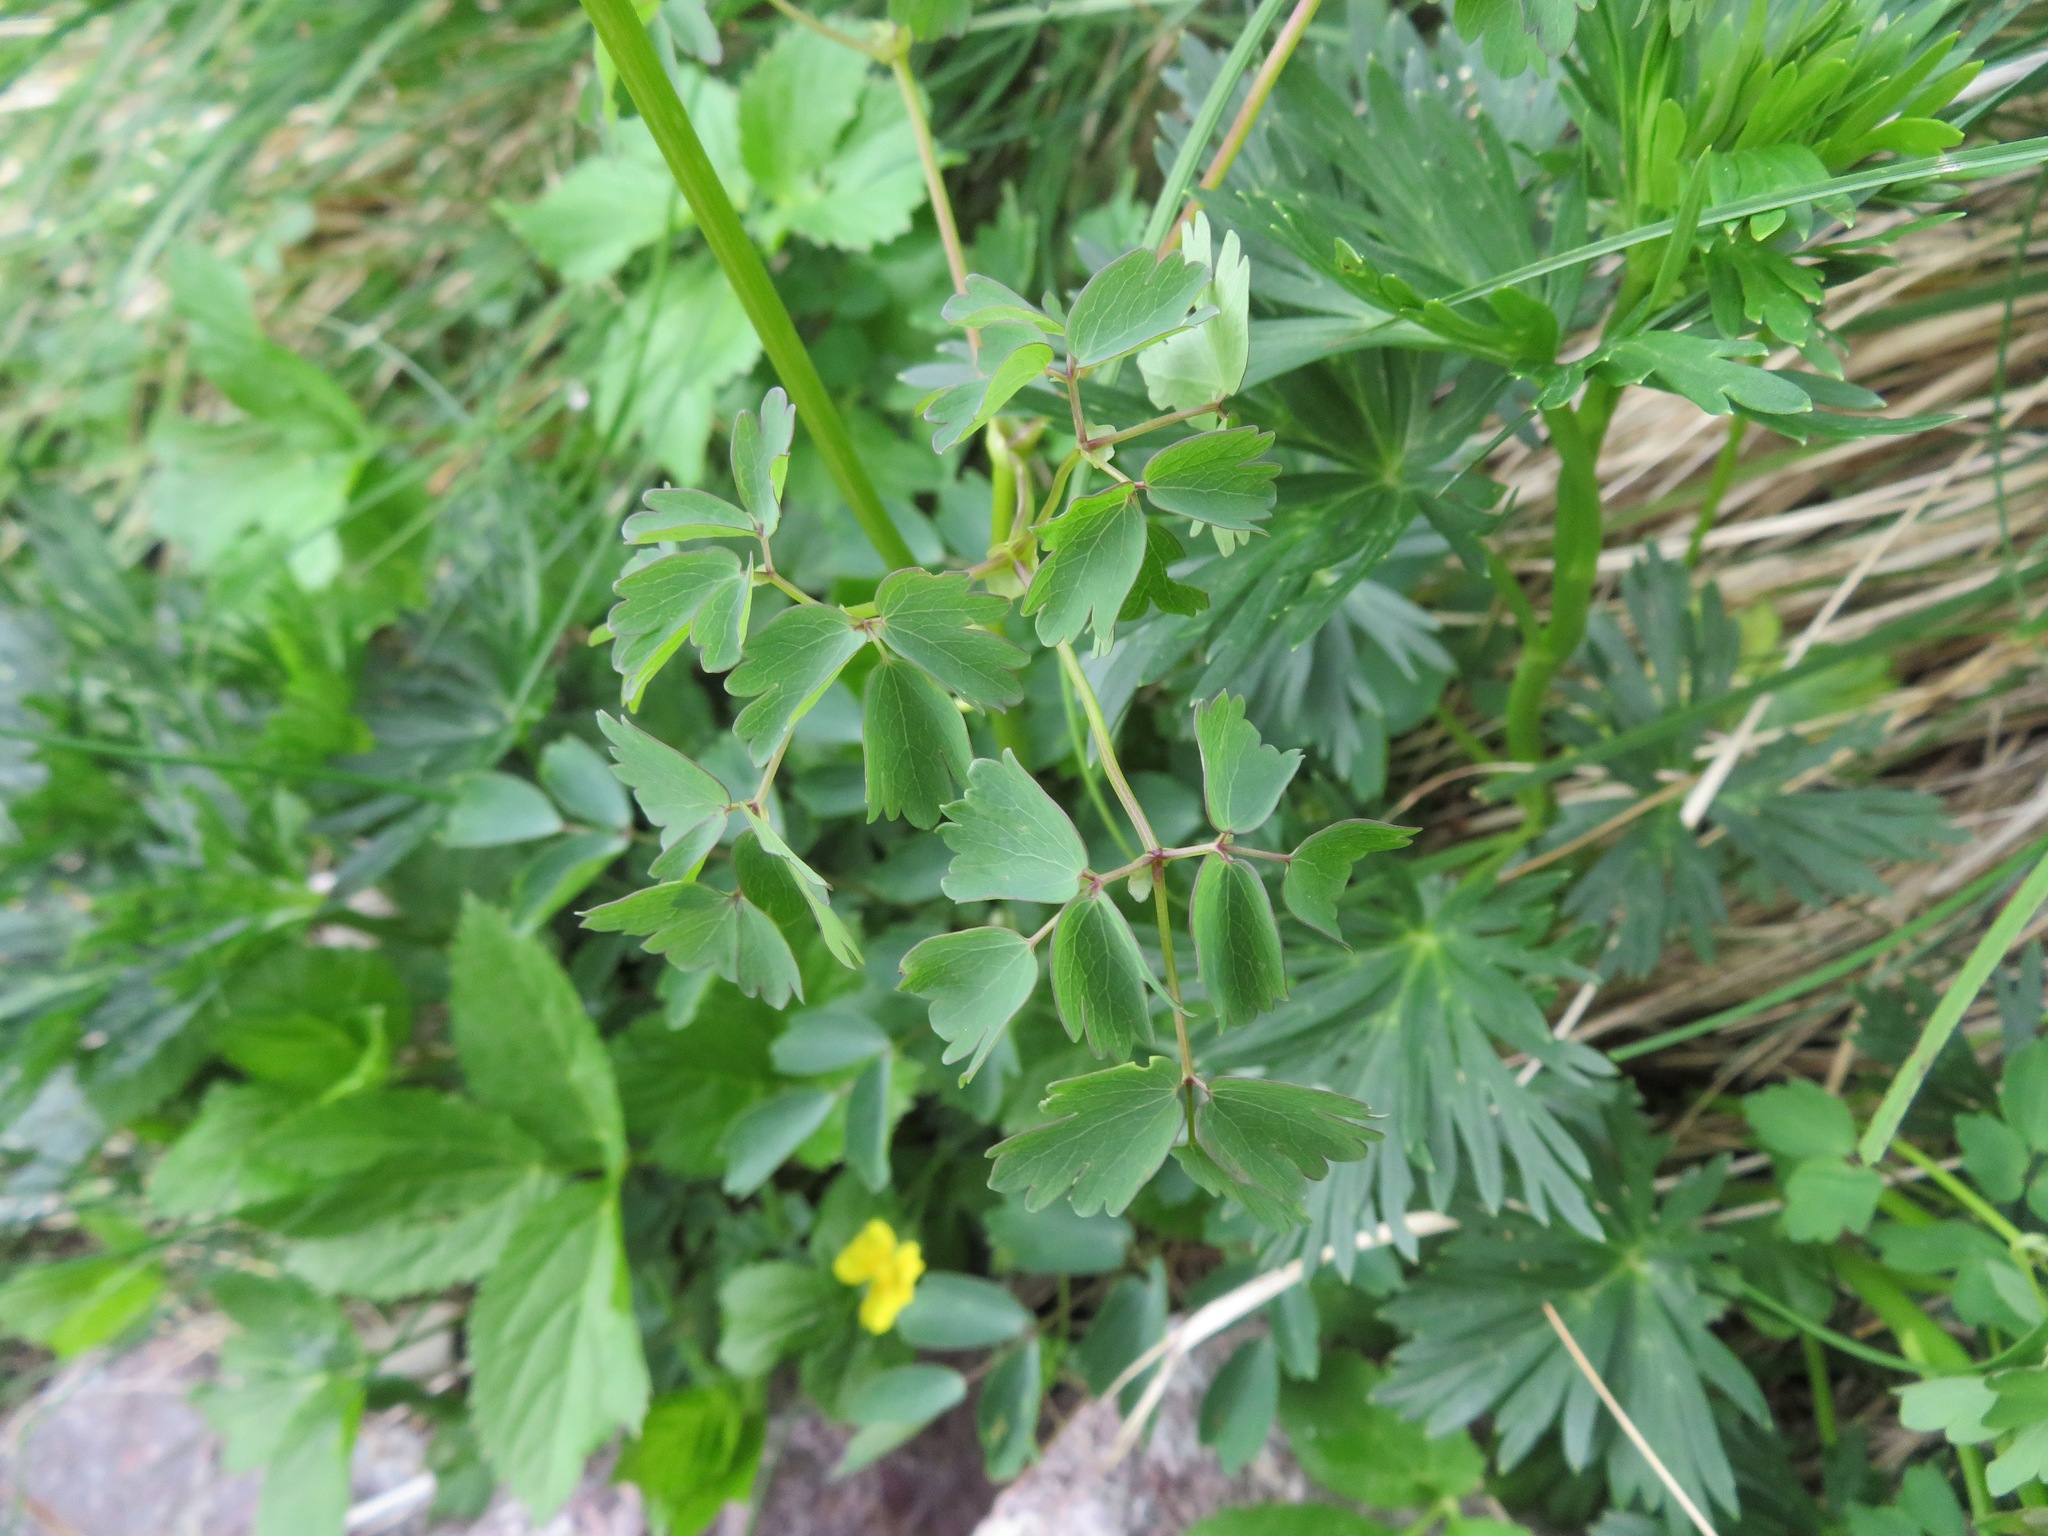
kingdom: Plantae
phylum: Tracheophyta
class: Magnoliopsida
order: Ranunculales
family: Ranunculaceae
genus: Thalictrum
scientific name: Thalictrum aquilegiifolium
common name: French meadow-rue
